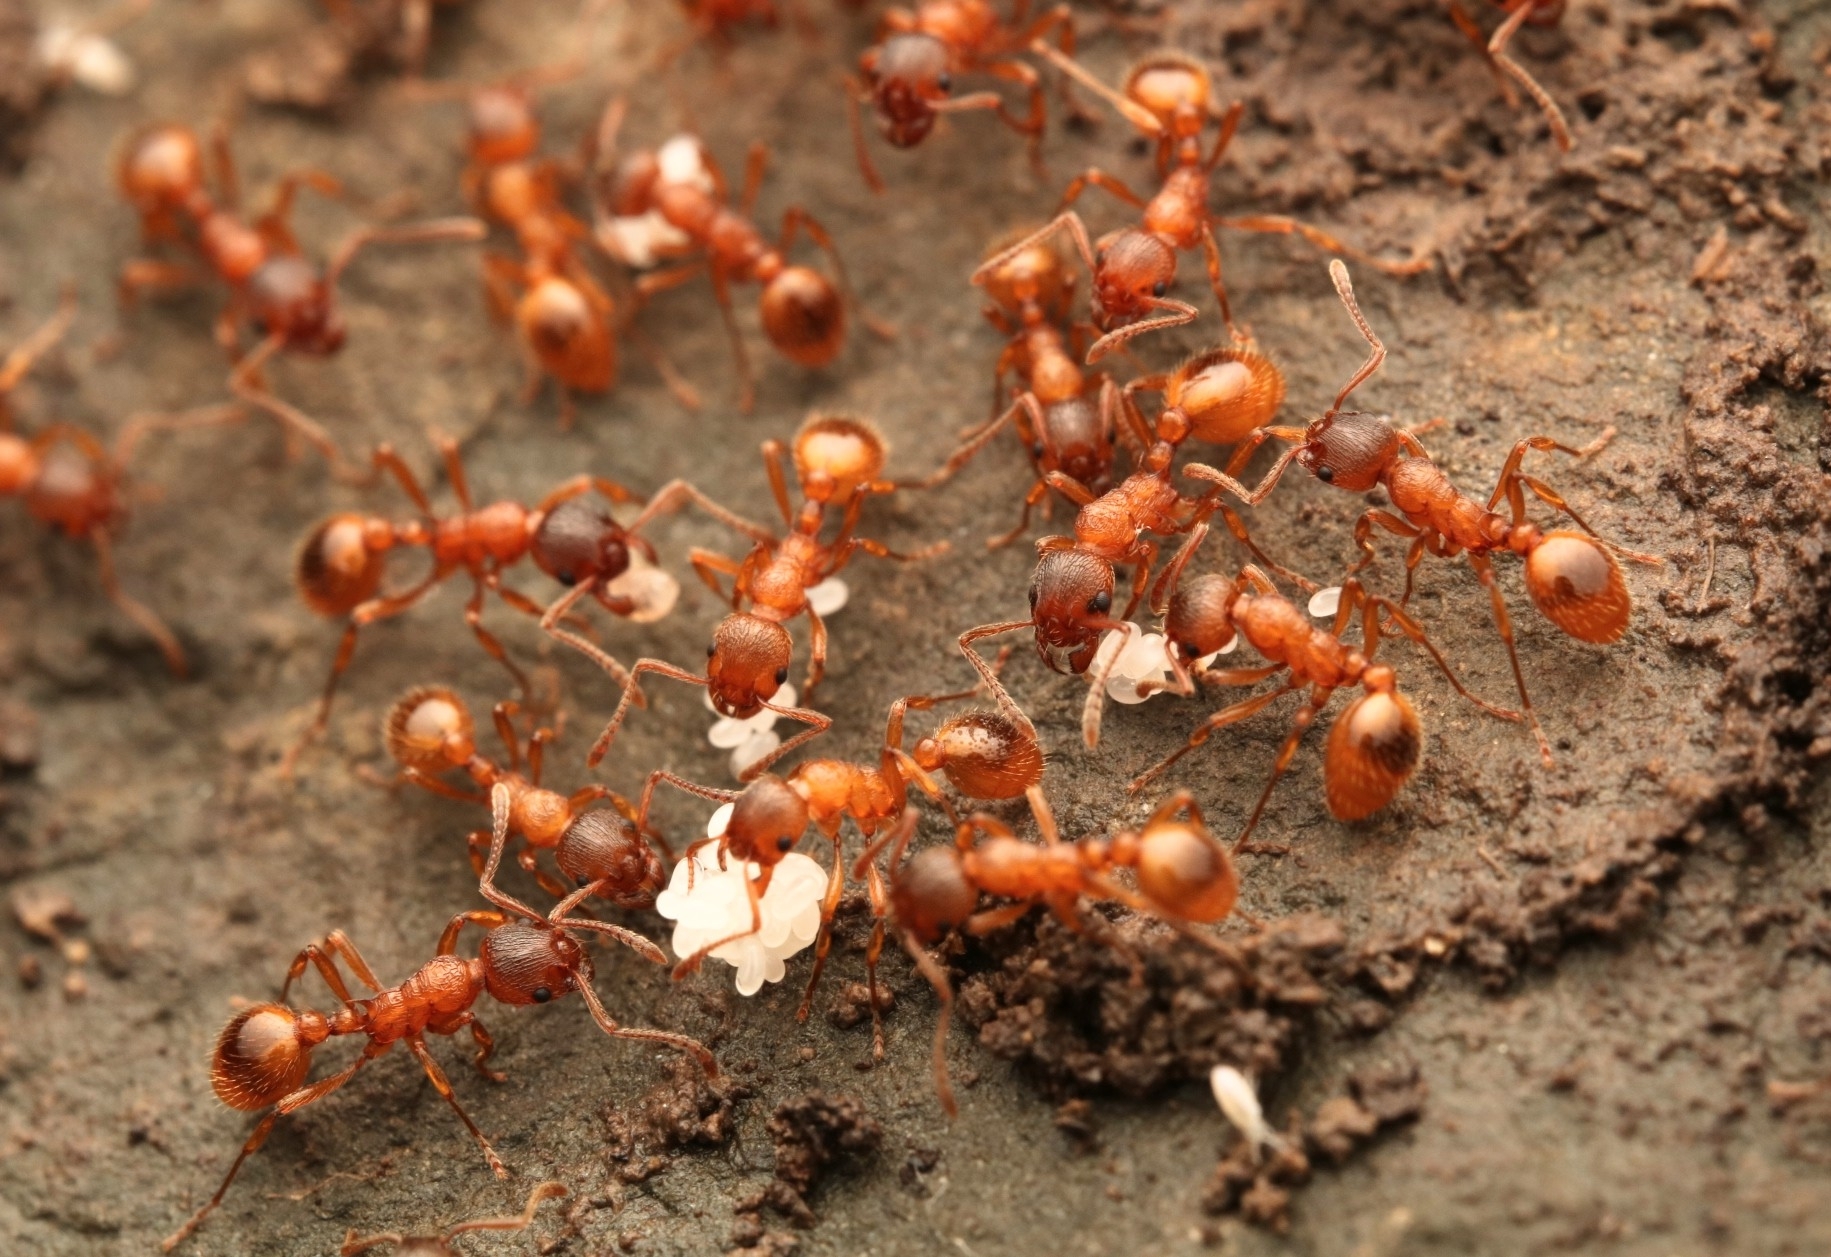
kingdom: Animalia
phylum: Arthropoda
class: Insecta
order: Hymenoptera
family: Formicidae
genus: Myrmica
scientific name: Myrmica rubra
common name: European fire ant
